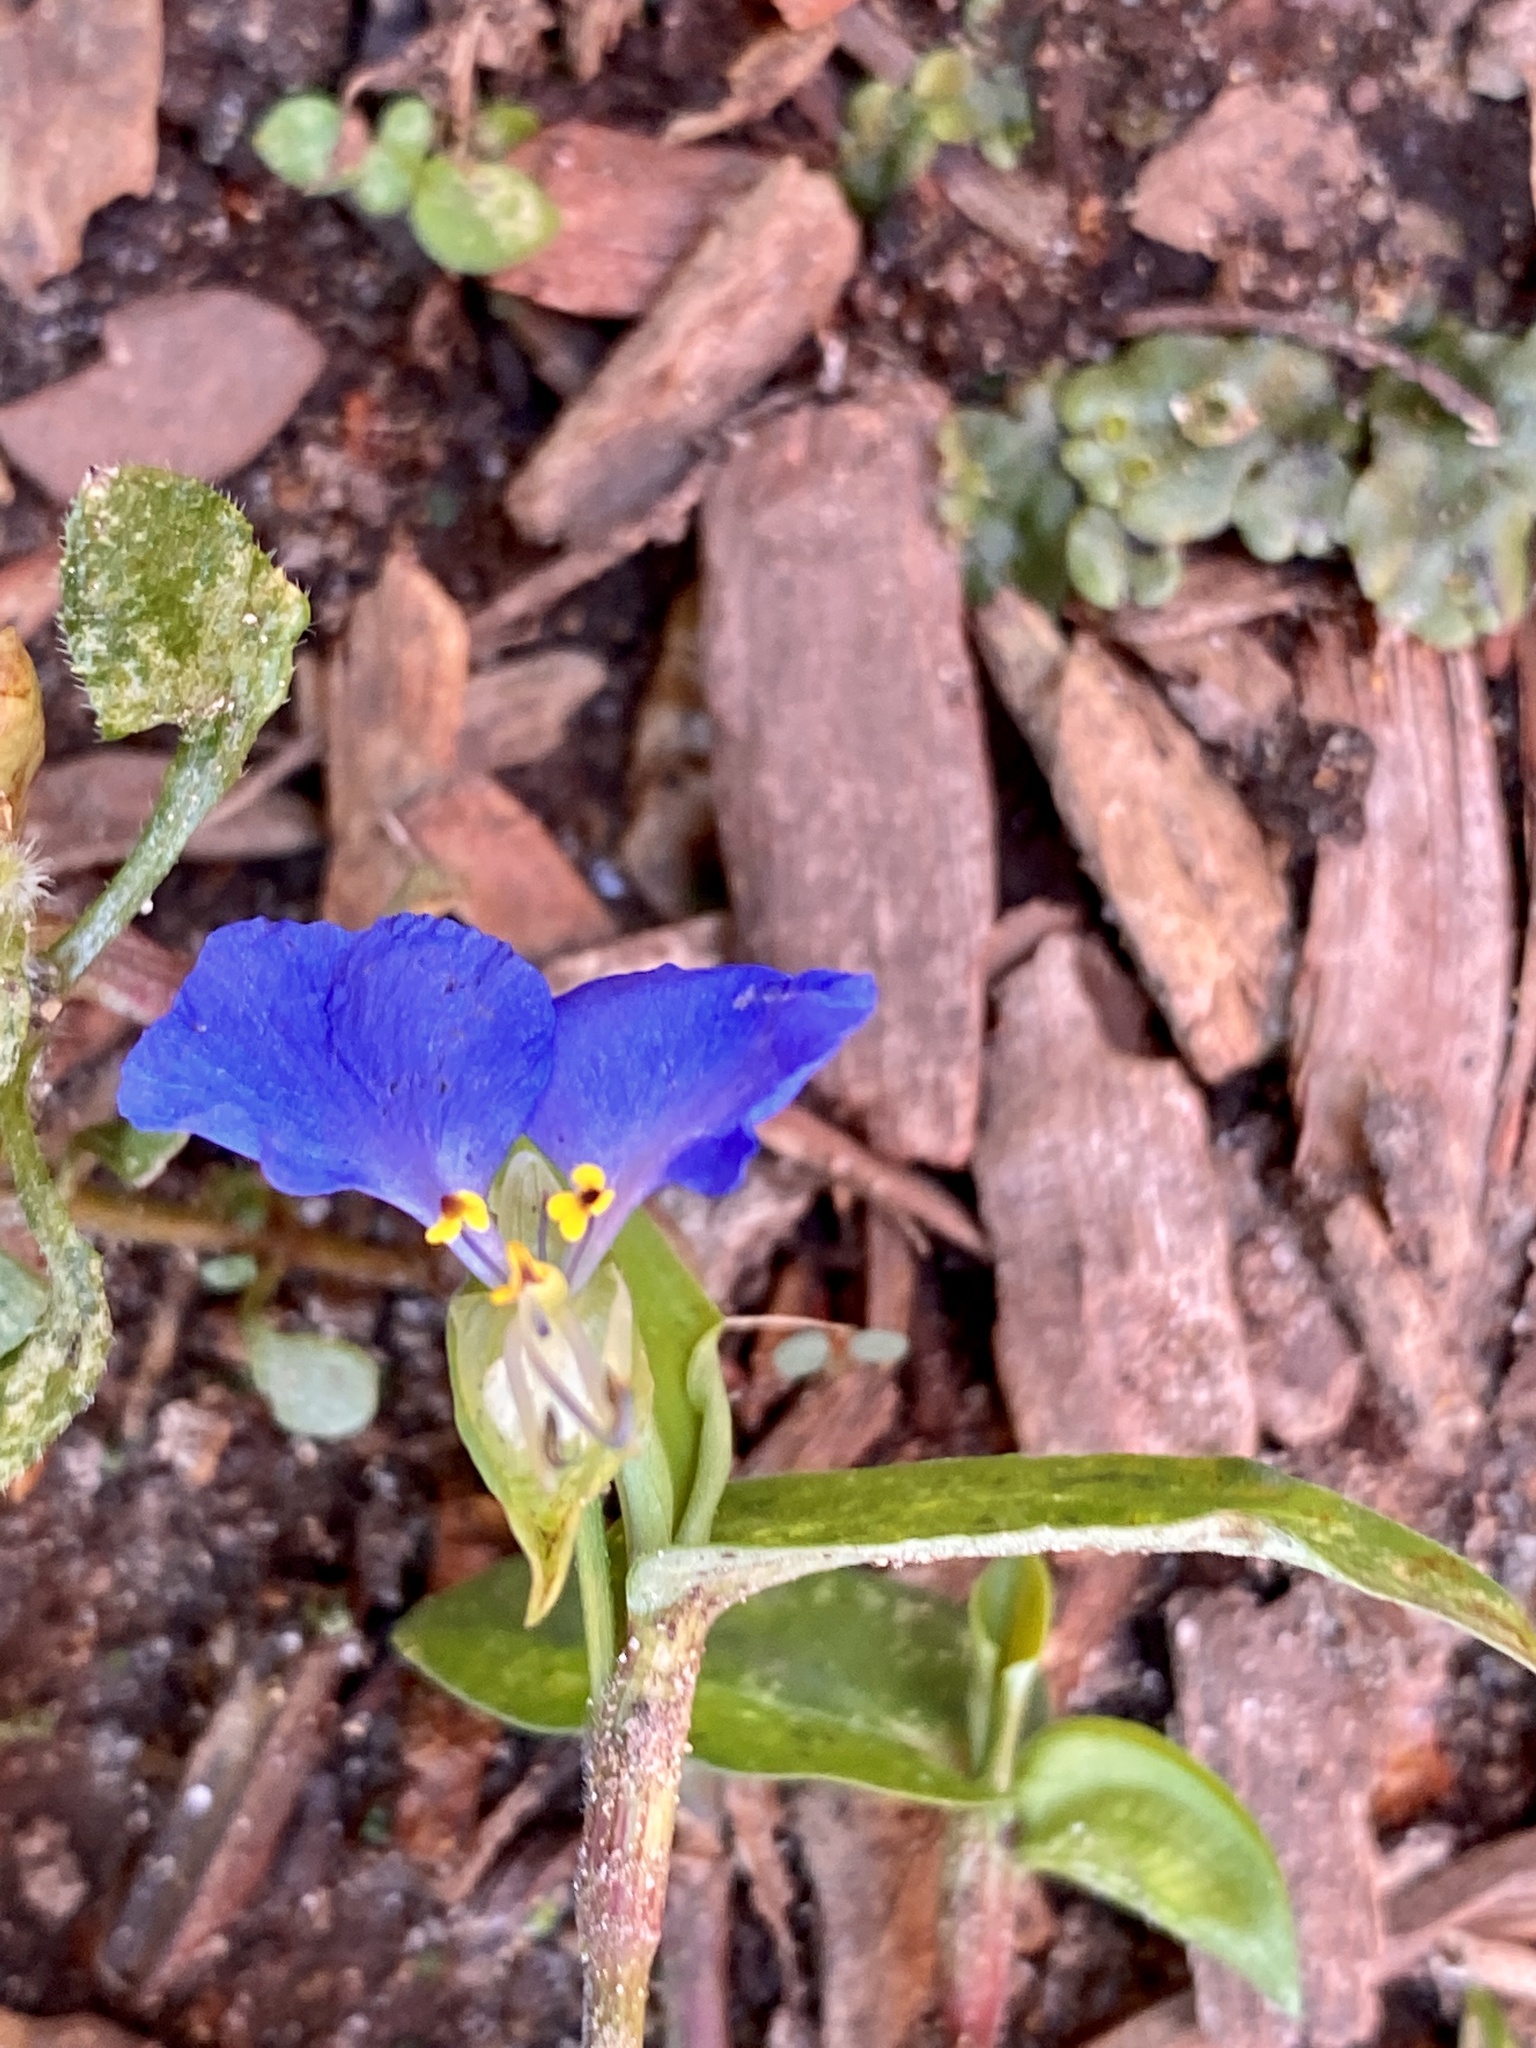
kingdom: Plantae
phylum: Tracheophyta
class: Liliopsida
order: Commelinales
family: Commelinaceae
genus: Commelina
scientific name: Commelina communis
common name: Asiatic dayflower
